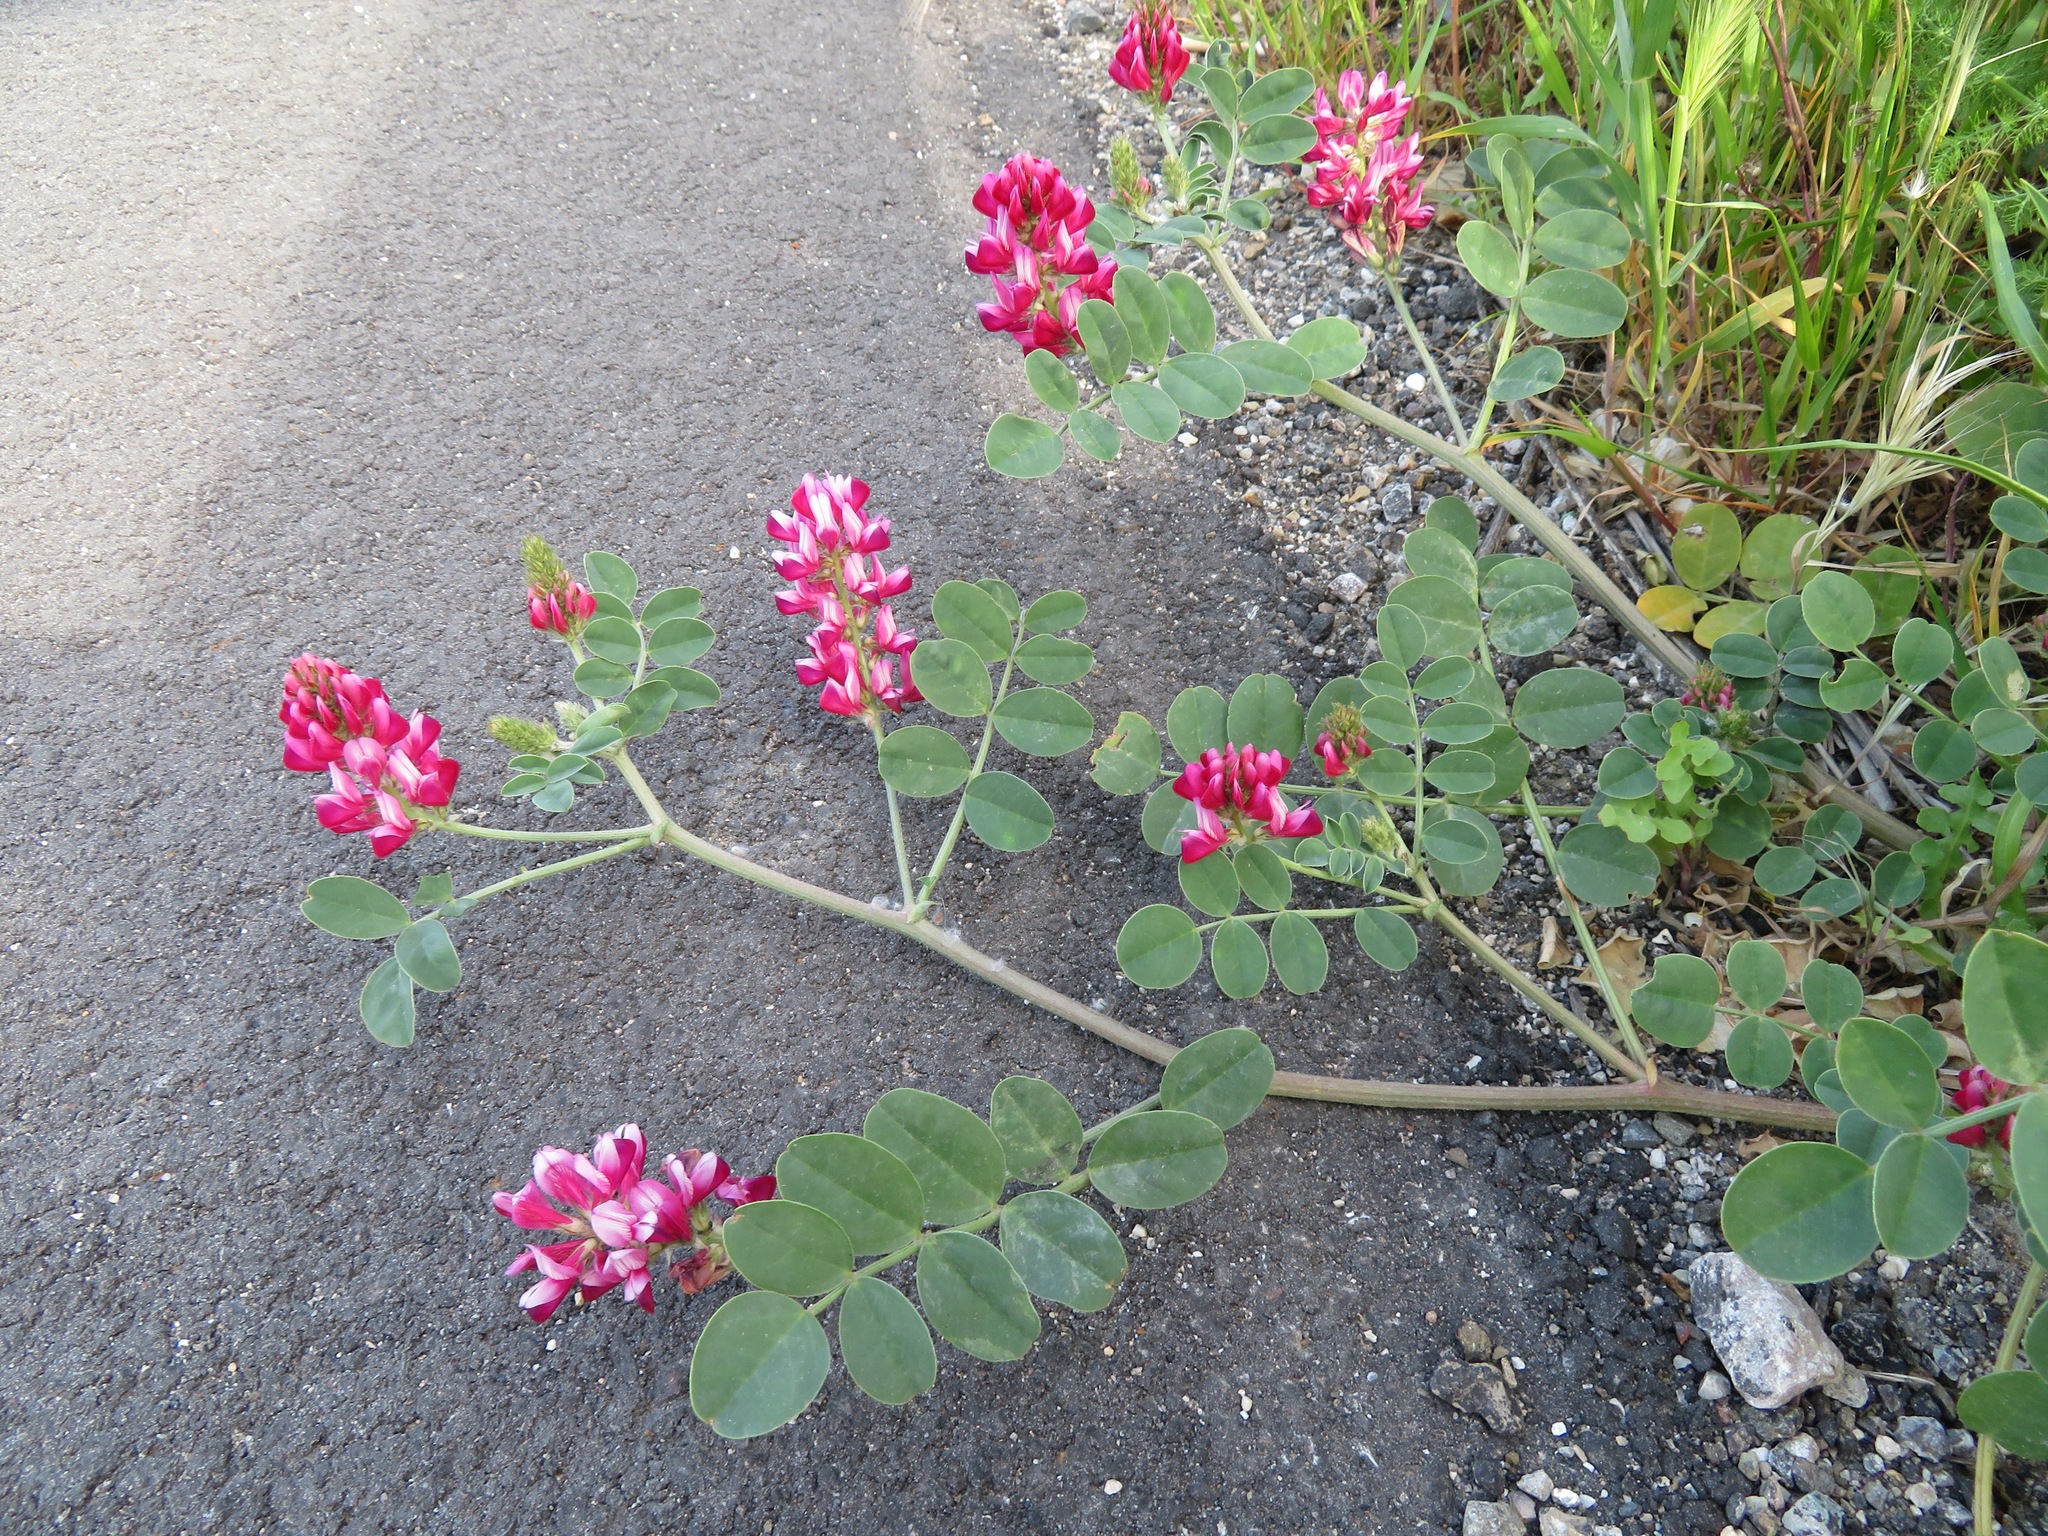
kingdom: Plantae
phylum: Tracheophyta
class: Magnoliopsida
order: Fabales
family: Fabaceae
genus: Sulla
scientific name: Sulla coronaria
